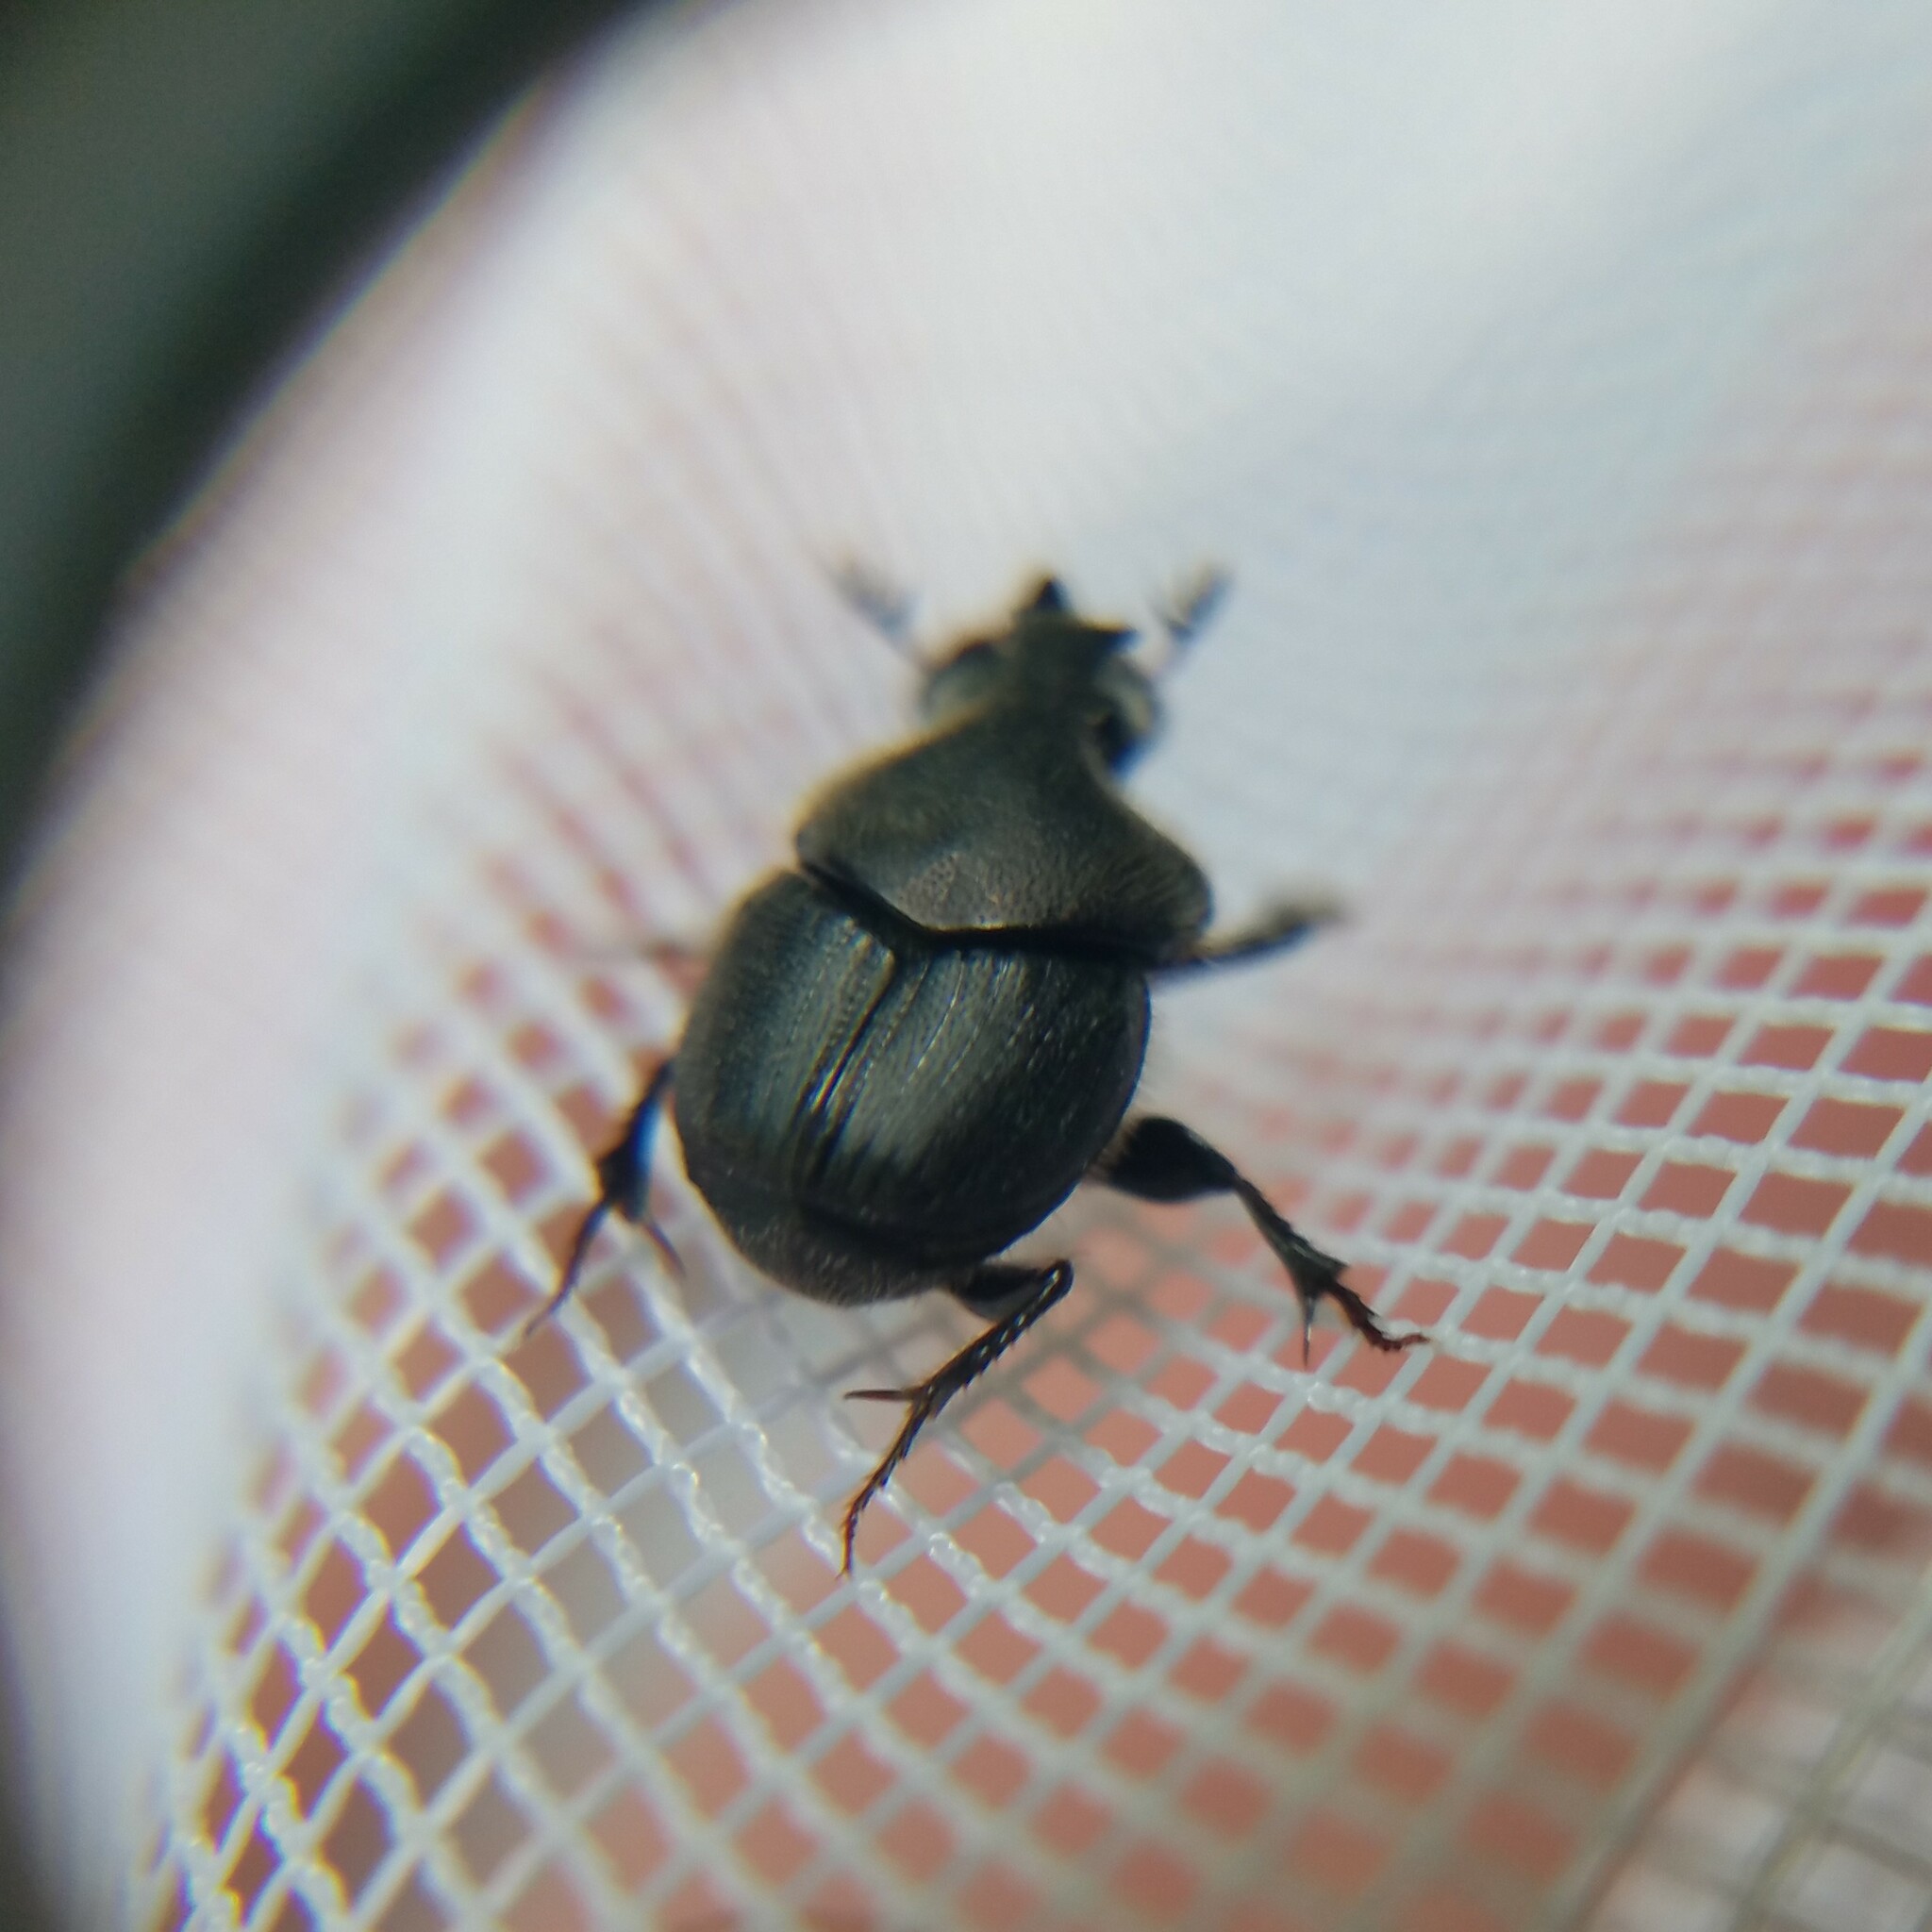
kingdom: Animalia
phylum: Arthropoda
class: Insecta
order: Coleoptera
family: Scarabaeidae
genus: Onthophagus
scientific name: Onthophagus hecate
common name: Scooped scarab
